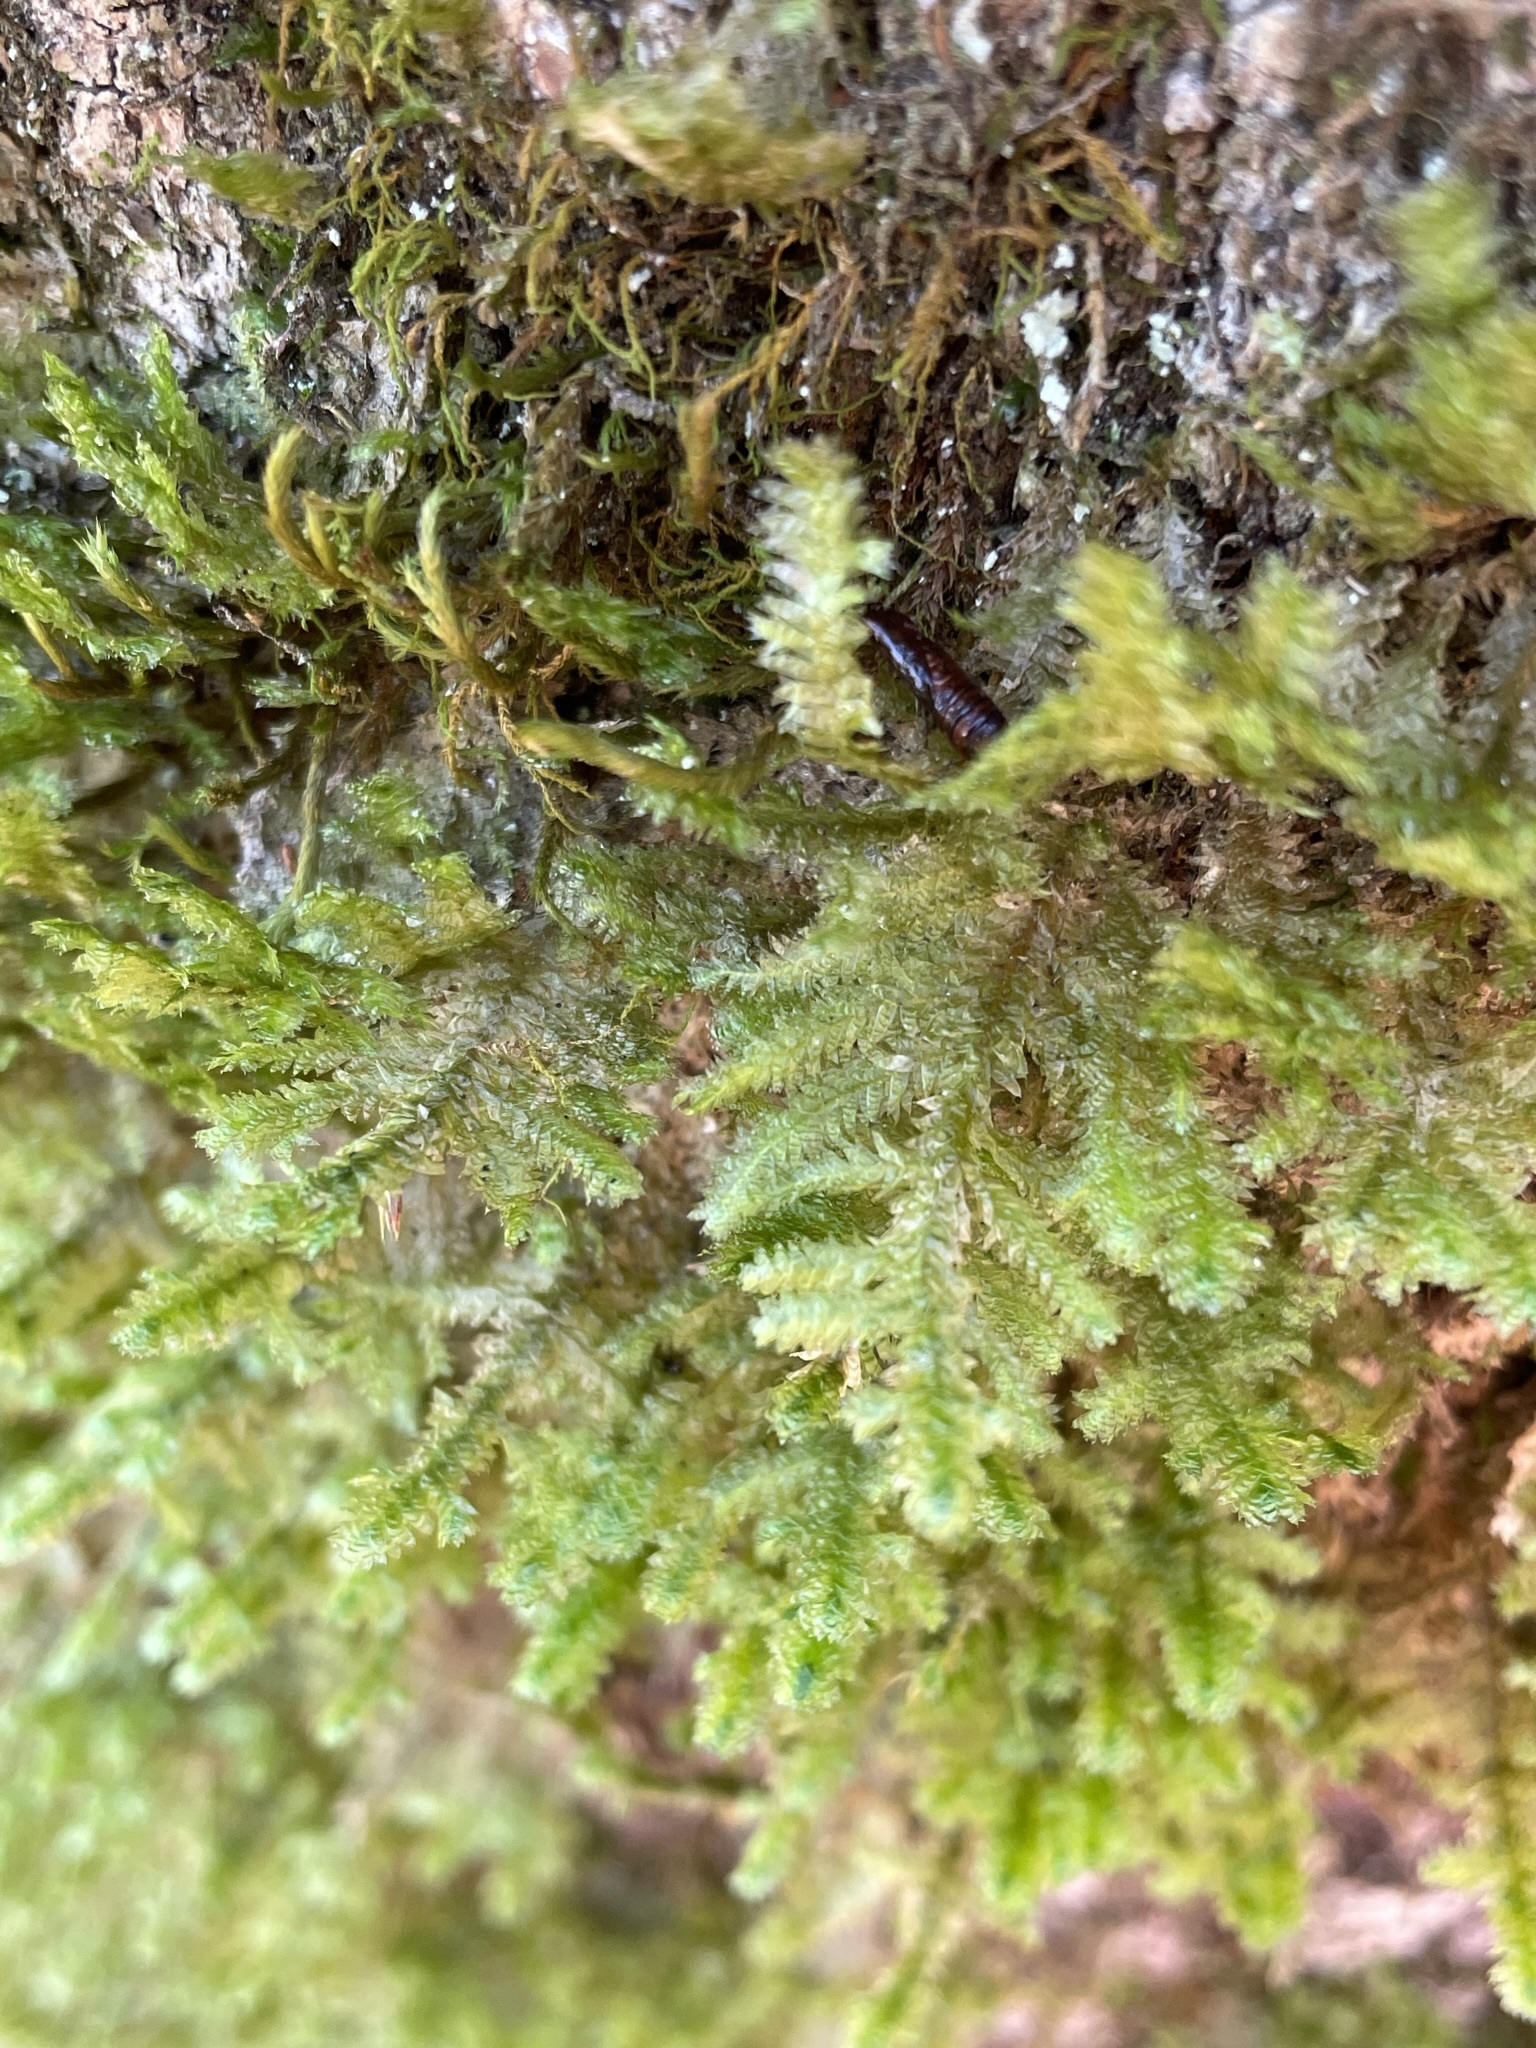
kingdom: Plantae
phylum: Bryophyta
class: Bryopsida
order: Hypnales
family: Neckeraceae
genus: Neckera
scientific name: Neckera pennata
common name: Feathery neckera
